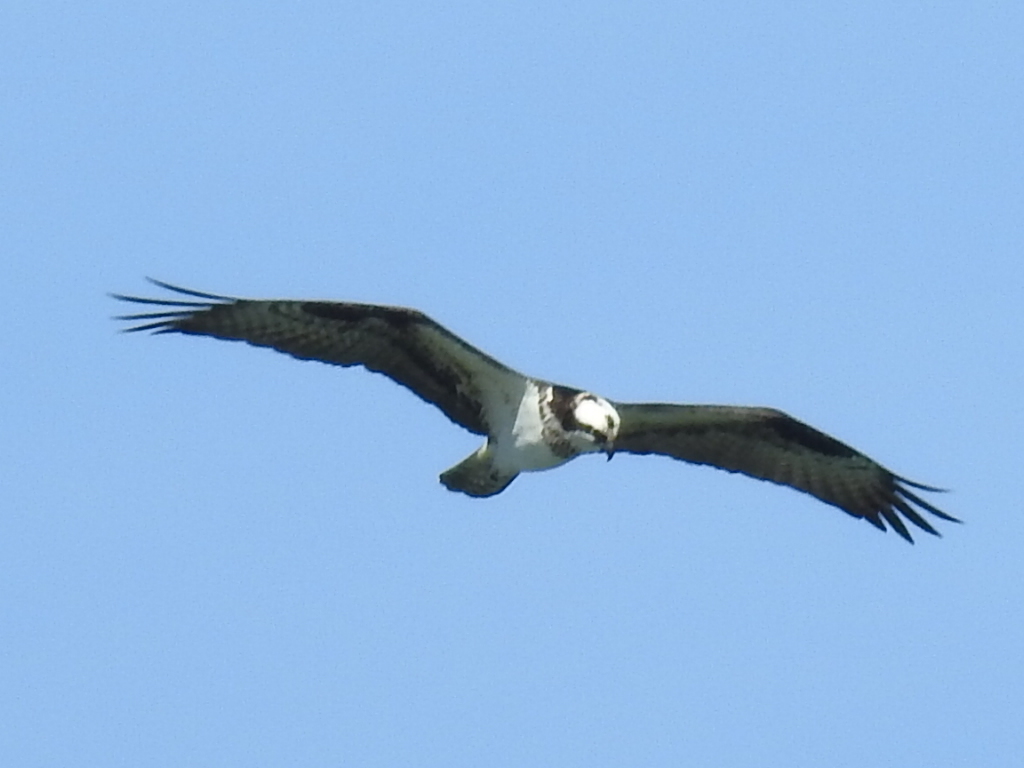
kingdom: Animalia
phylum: Chordata
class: Aves
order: Accipitriformes
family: Pandionidae
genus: Pandion
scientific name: Pandion haliaetus
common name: Osprey
